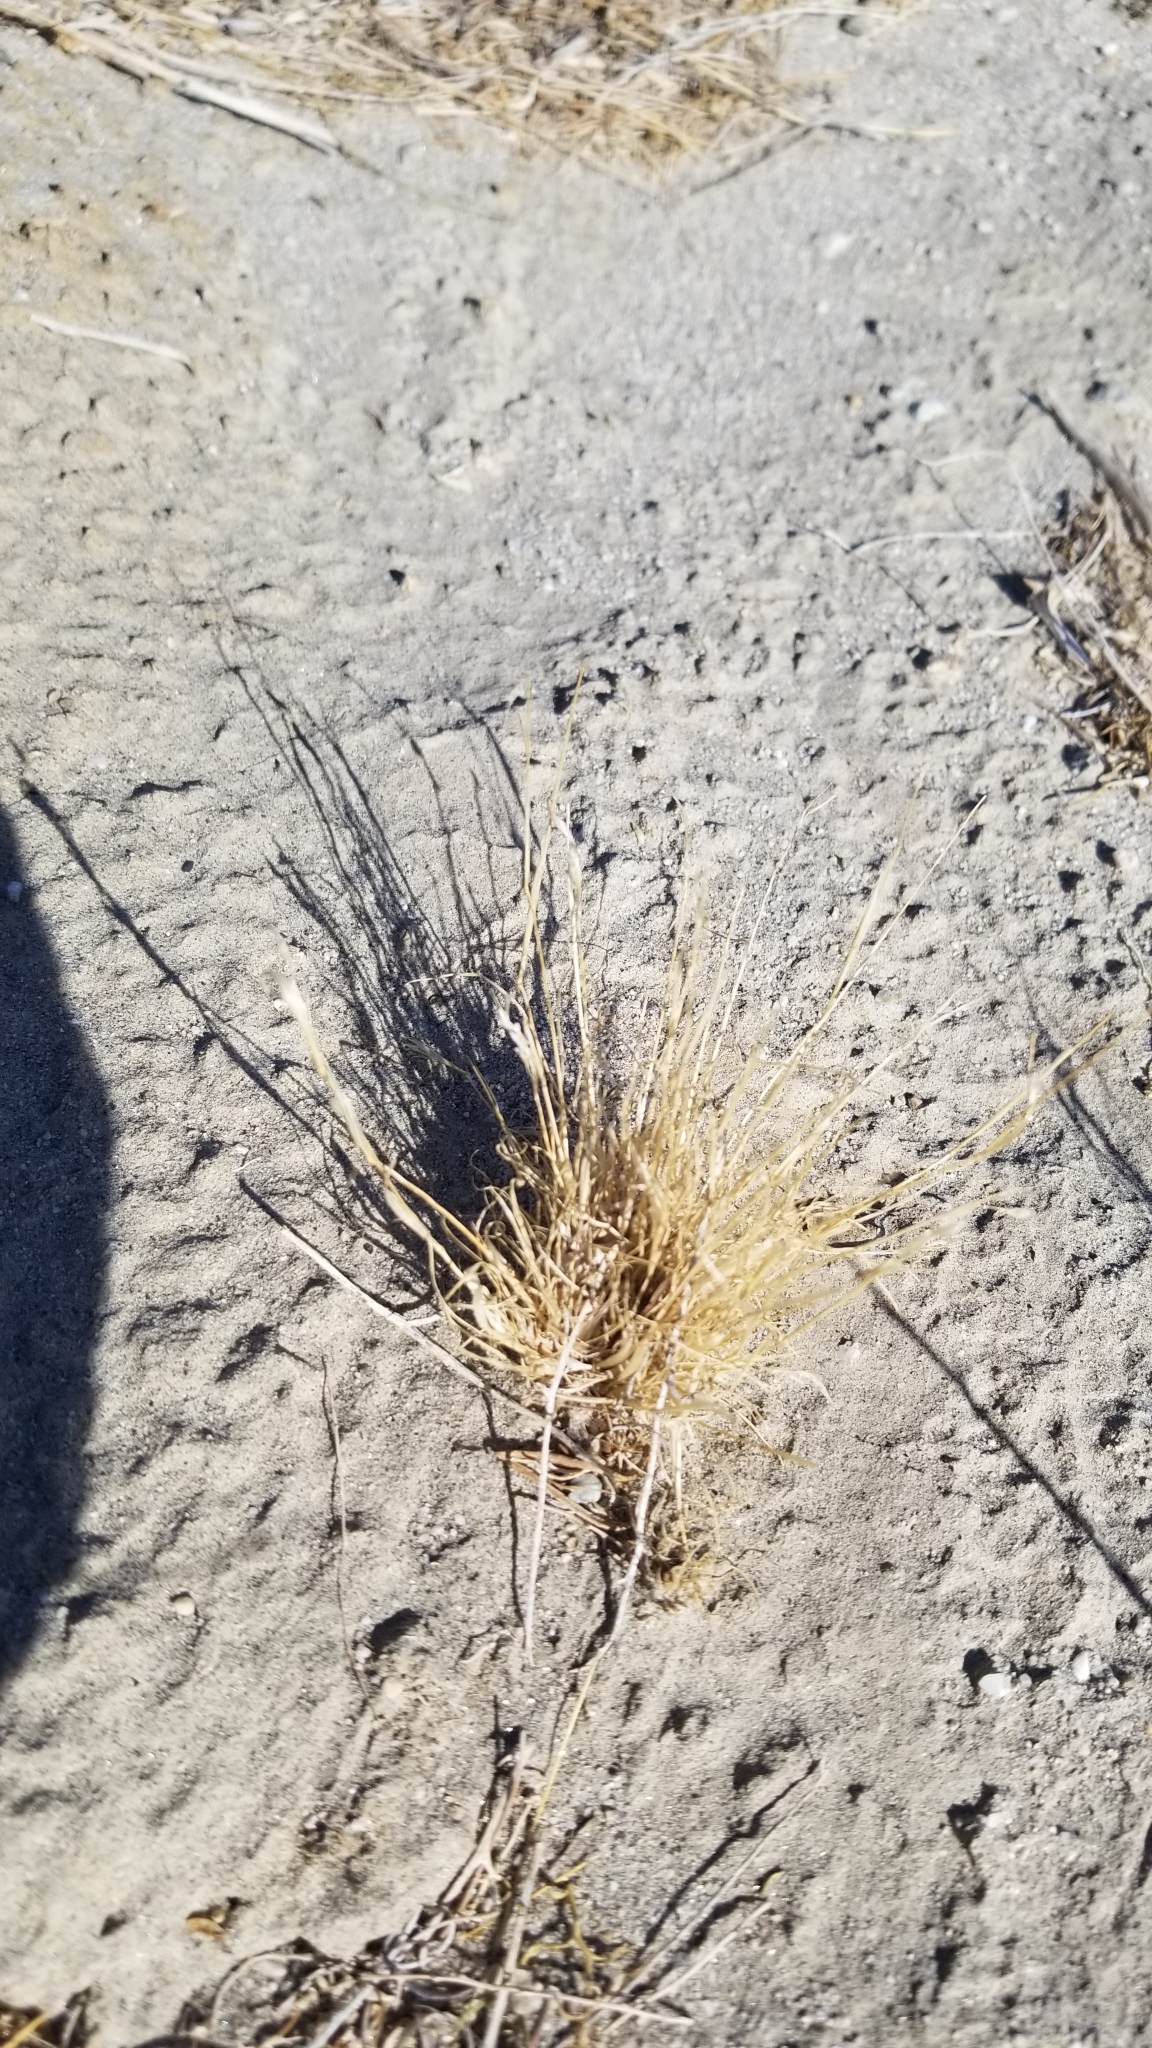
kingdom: Plantae
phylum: Tracheophyta
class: Liliopsida
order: Poales
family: Poaceae
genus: Schismus
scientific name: Schismus barbatus
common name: Kelch-grass
